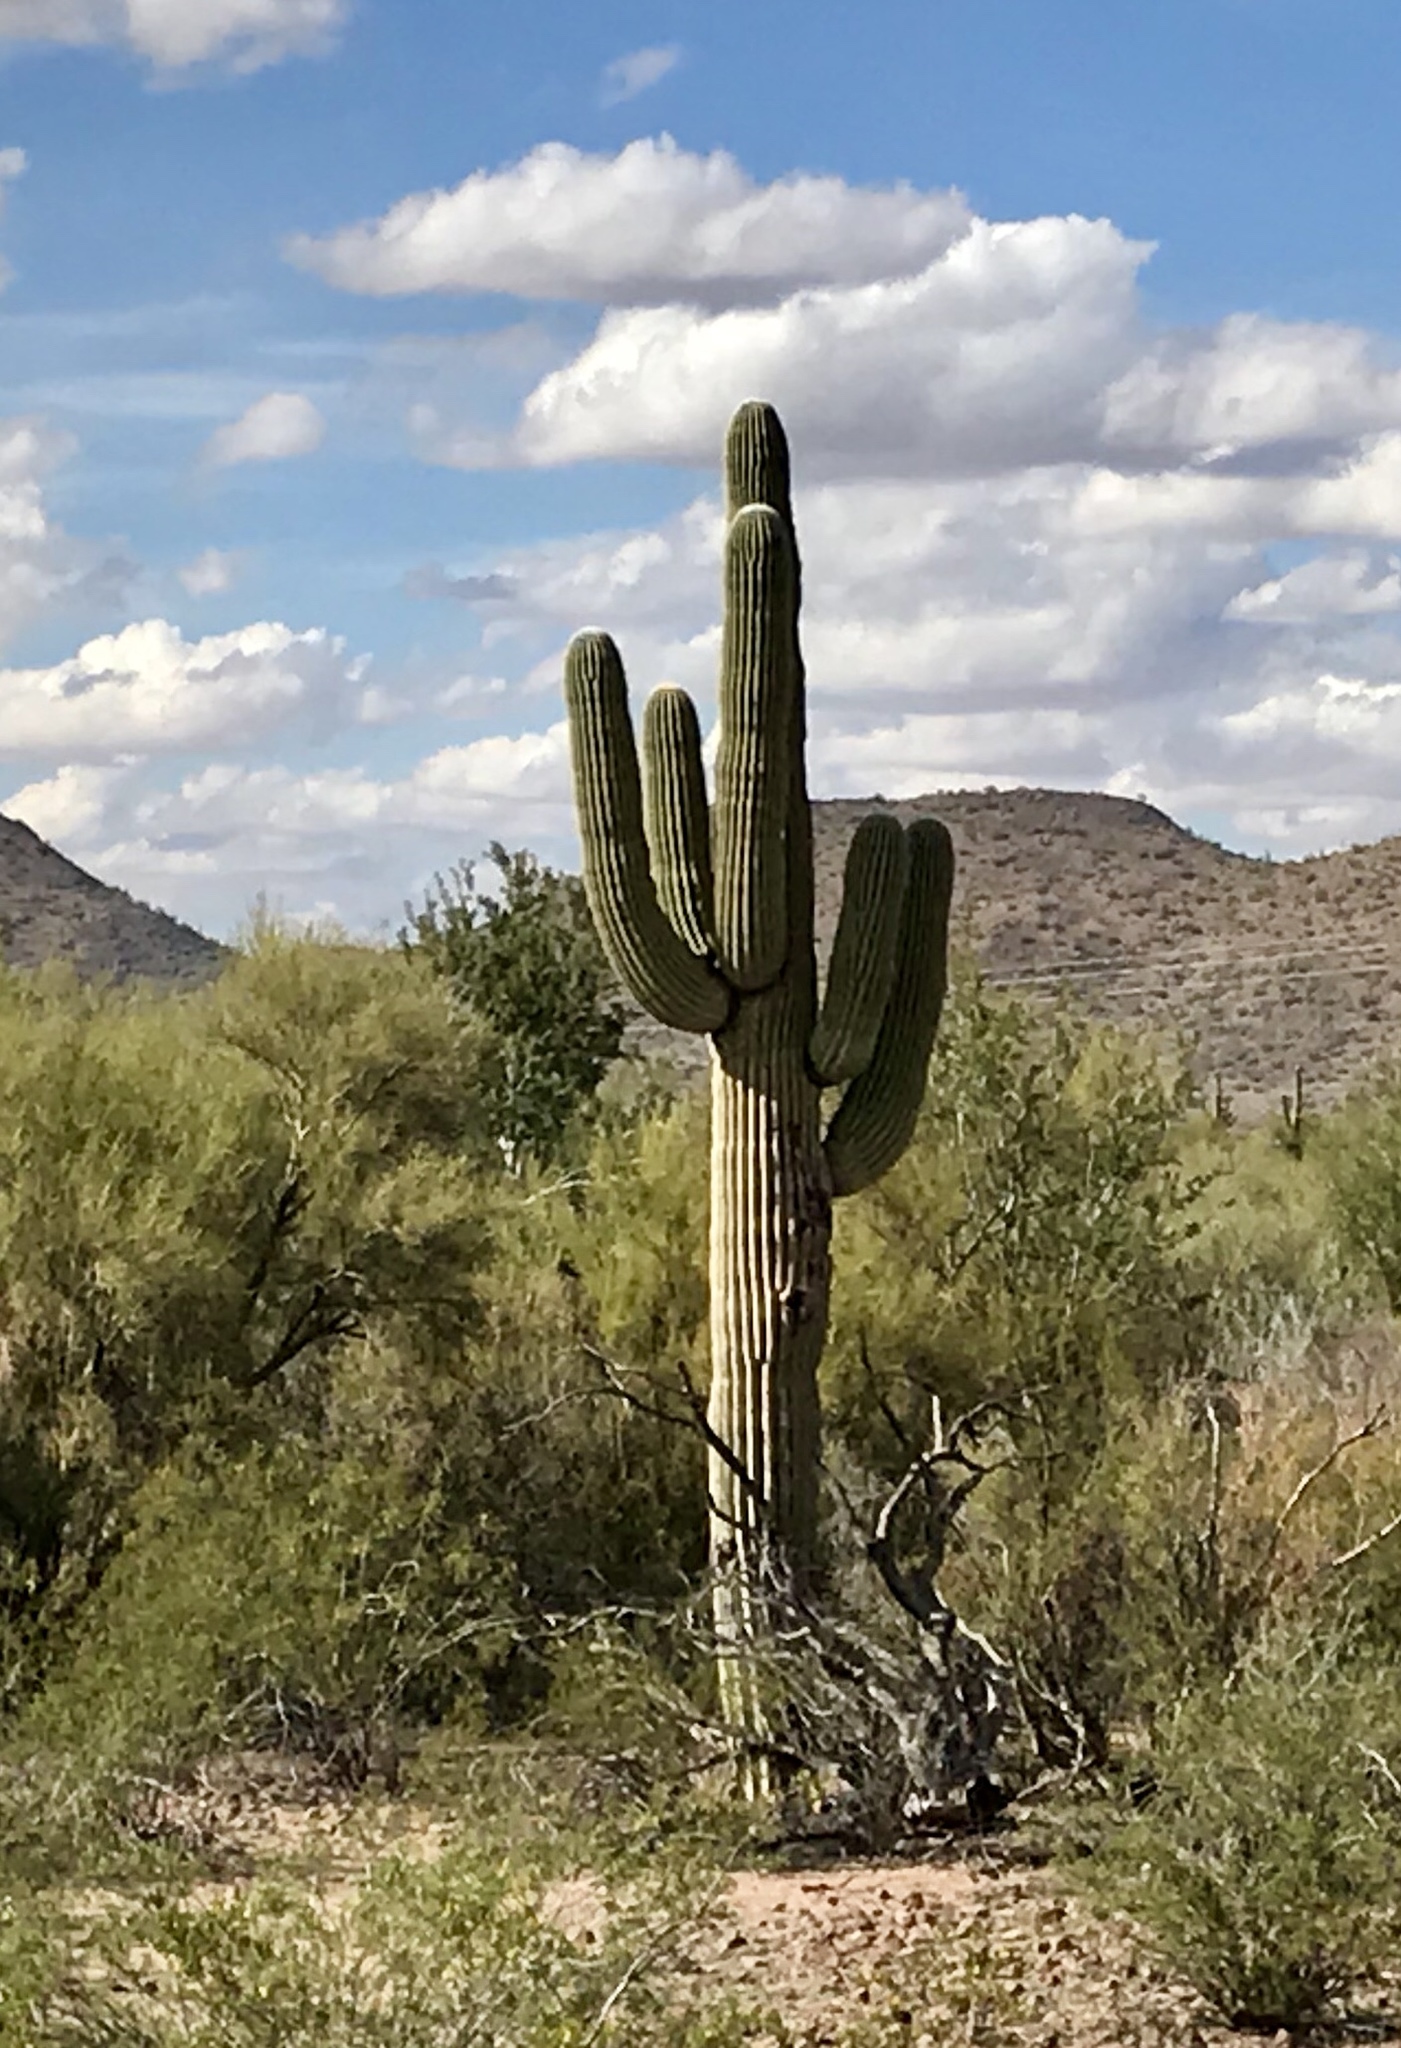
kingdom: Plantae
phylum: Tracheophyta
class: Magnoliopsida
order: Caryophyllales
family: Cactaceae
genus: Carnegiea
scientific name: Carnegiea gigantea
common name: Saguaro
